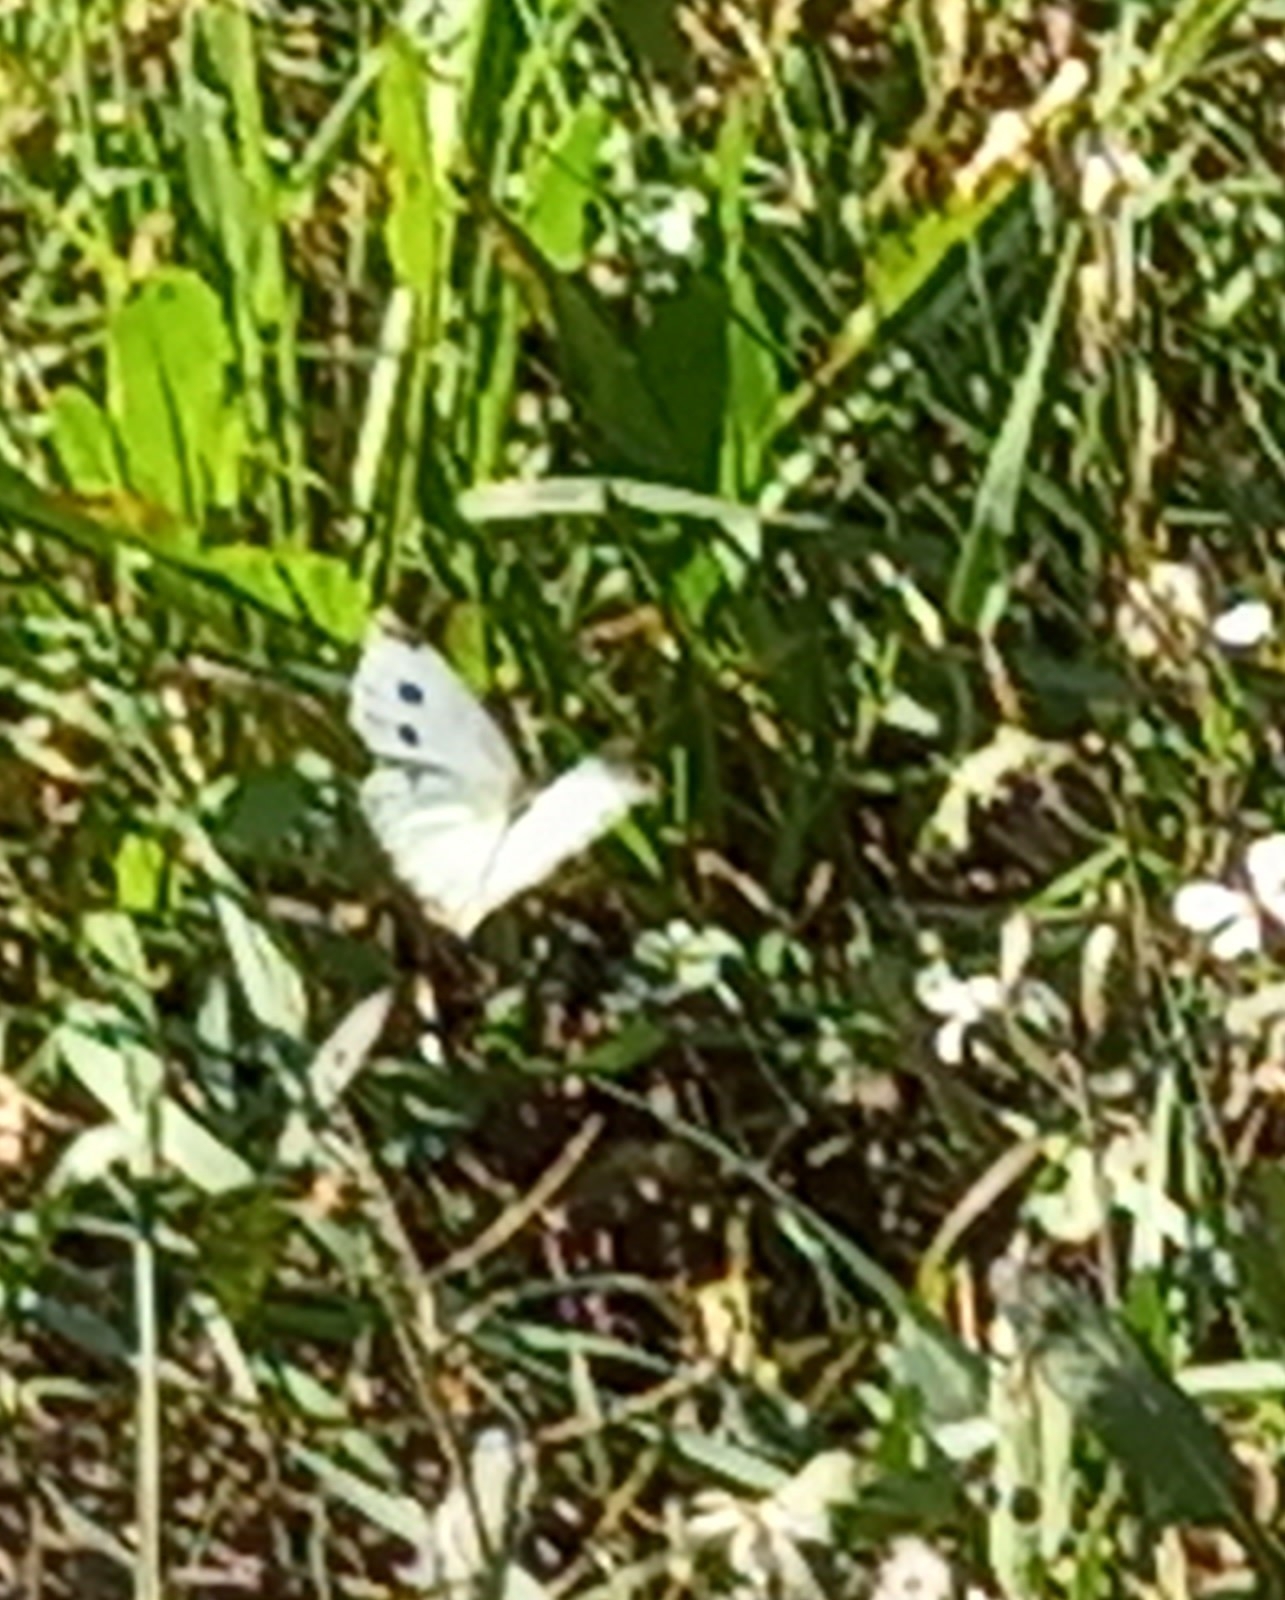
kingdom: Animalia
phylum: Arthropoda
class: Insecta
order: Lepidoptera
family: Pieridae
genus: Pieris
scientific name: Pieris rapae
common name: Small white
